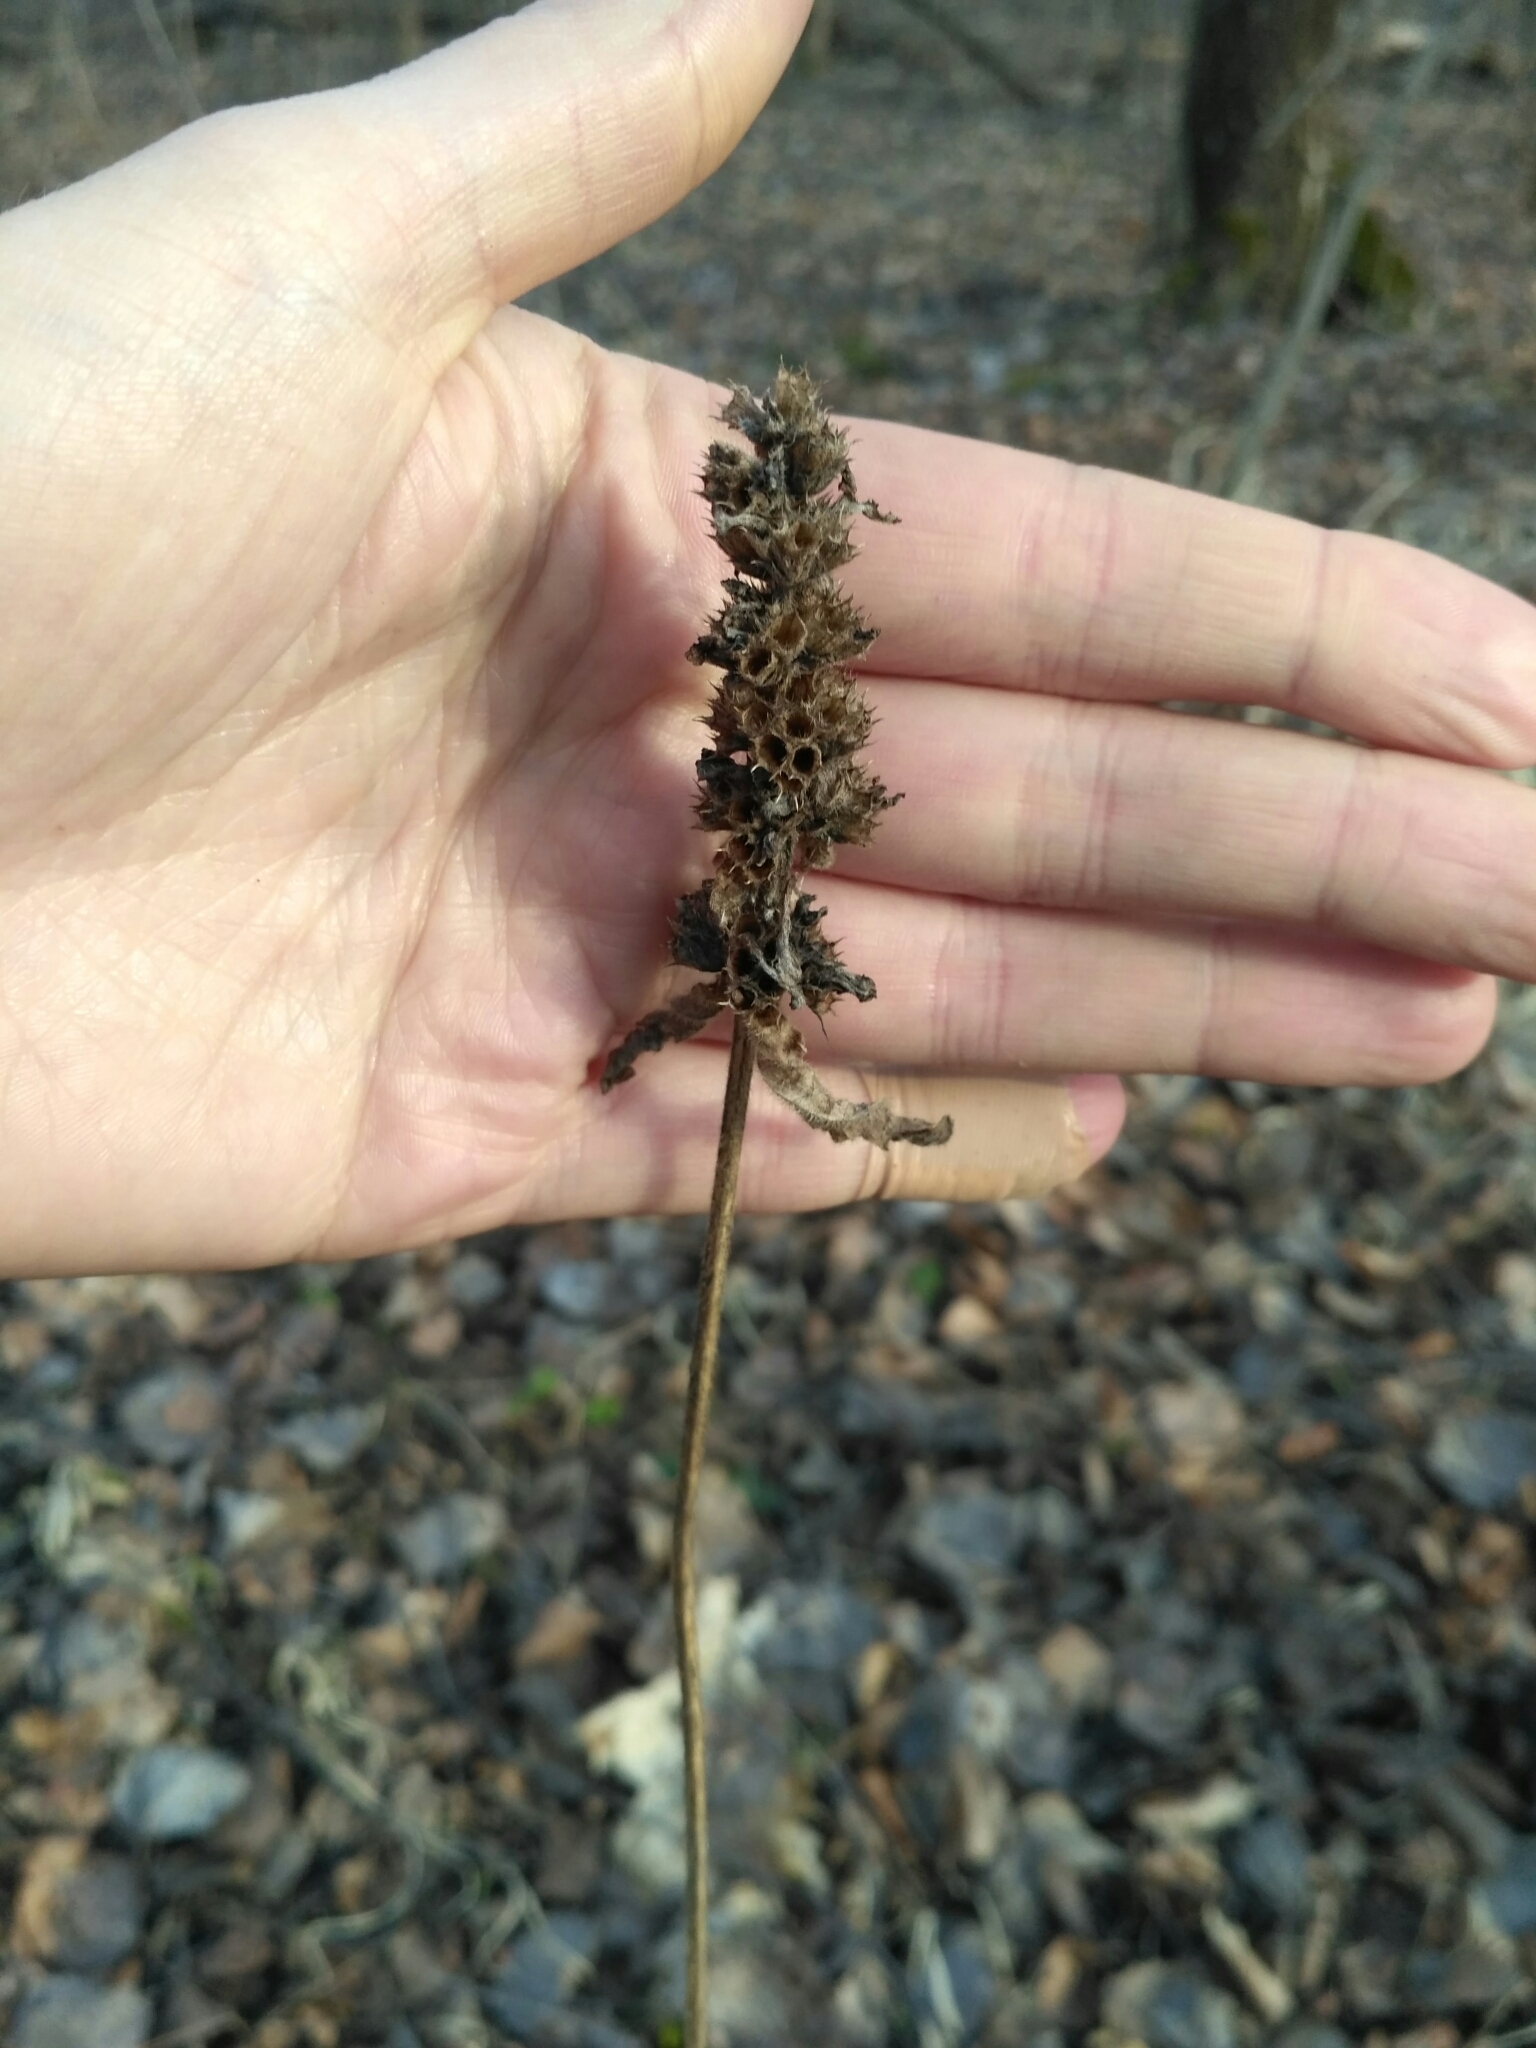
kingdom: Plantae
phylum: Tracheophyta
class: Magnoliopsida
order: Lamiales
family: Lamiaceae
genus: Betonica
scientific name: Betonica officinalis
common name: Bishop's-wort
